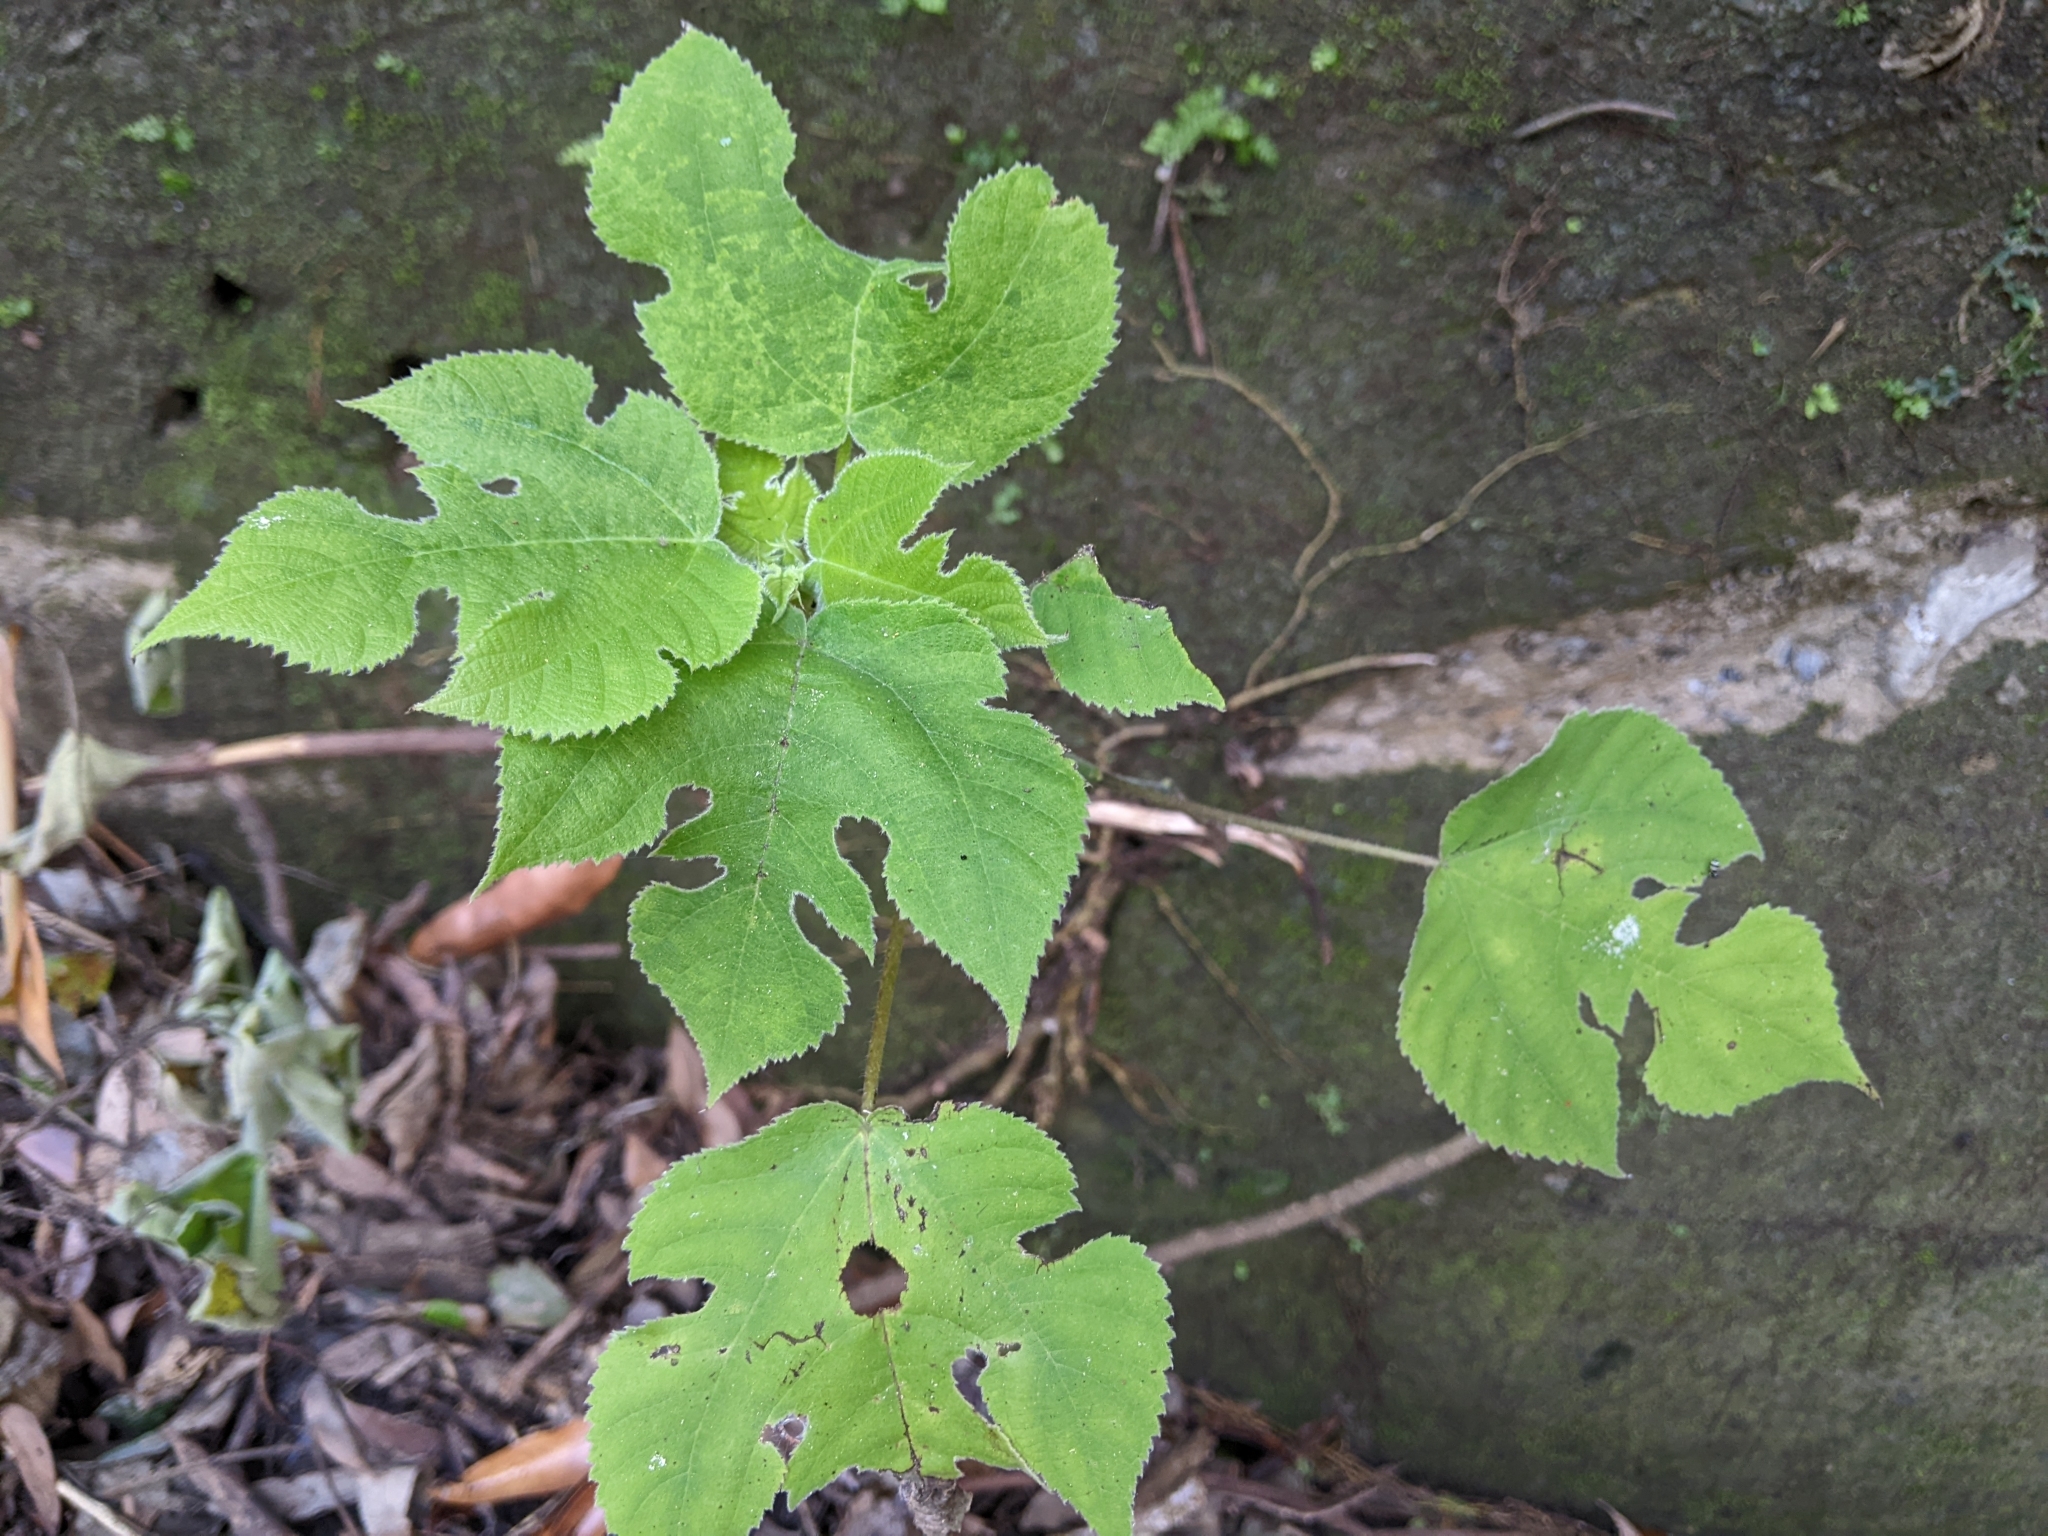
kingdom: Plantae
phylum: Tracheophyta
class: Magnoliopsida
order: Rosales
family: Moraceae
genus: Broussonetia
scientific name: Broussonetia papyrifera
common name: Paper mulberry
